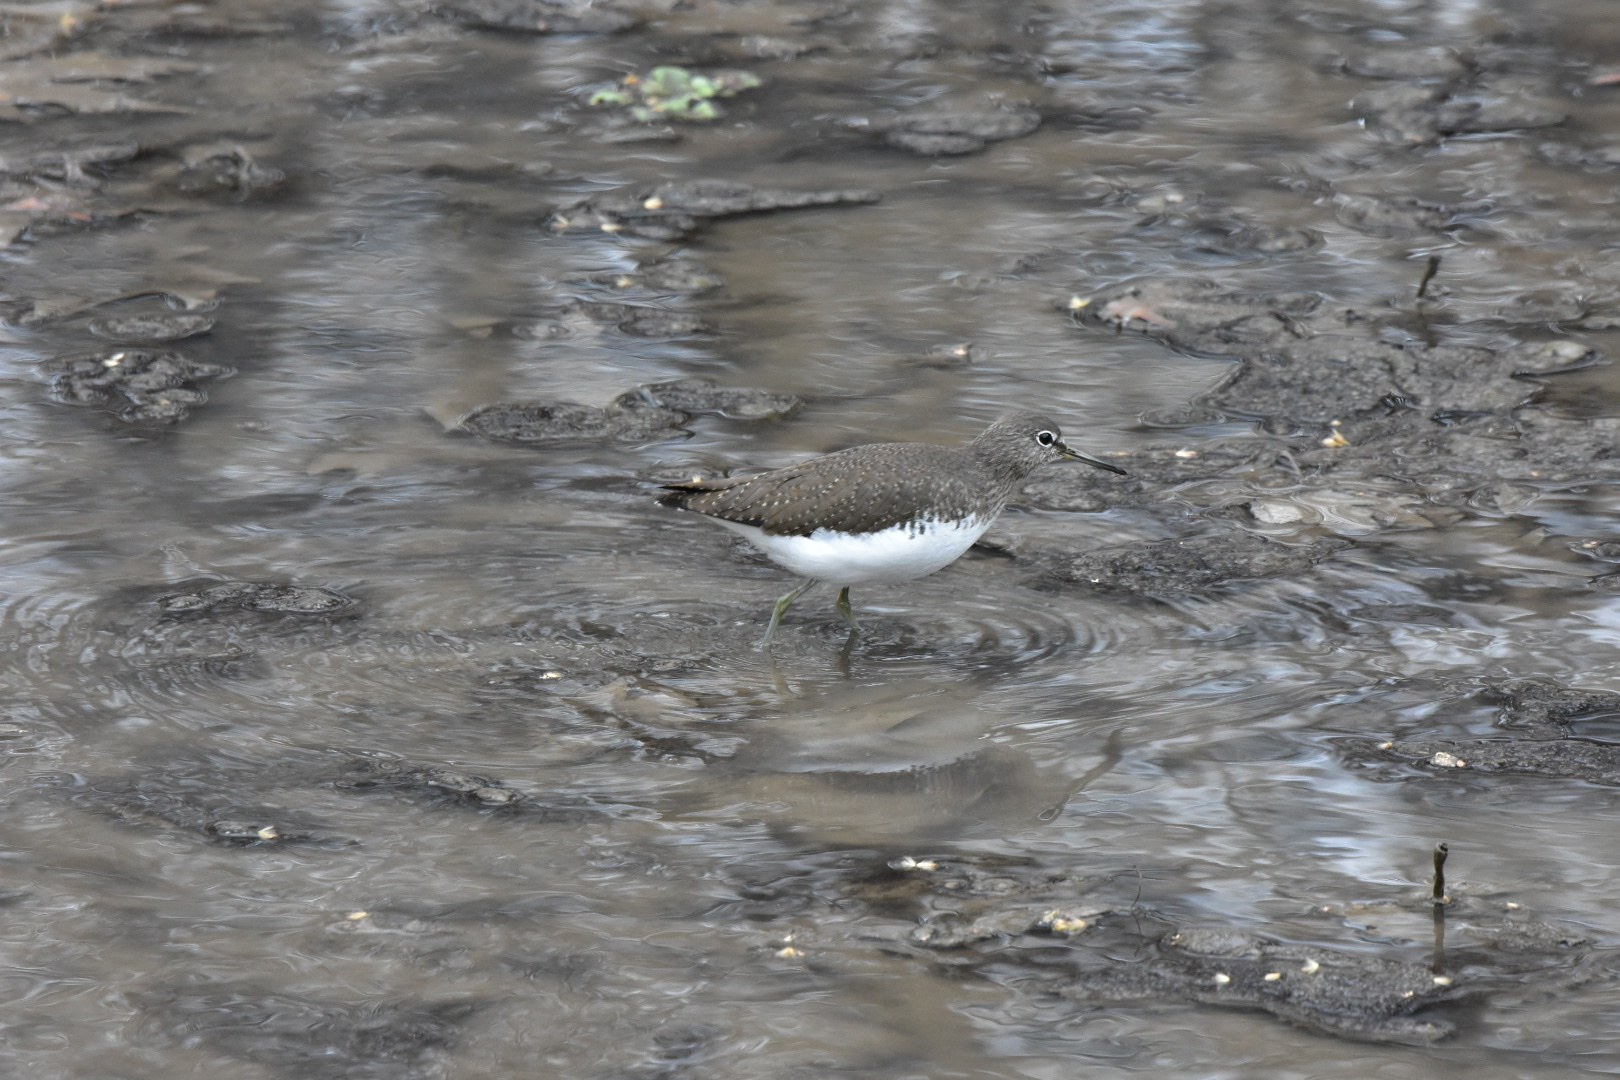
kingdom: Animalia
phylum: Chordata
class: Aves
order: Charadriiformes
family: Scolopacidae
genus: Tringa
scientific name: Tringa ochropus
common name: Green sandpiper
